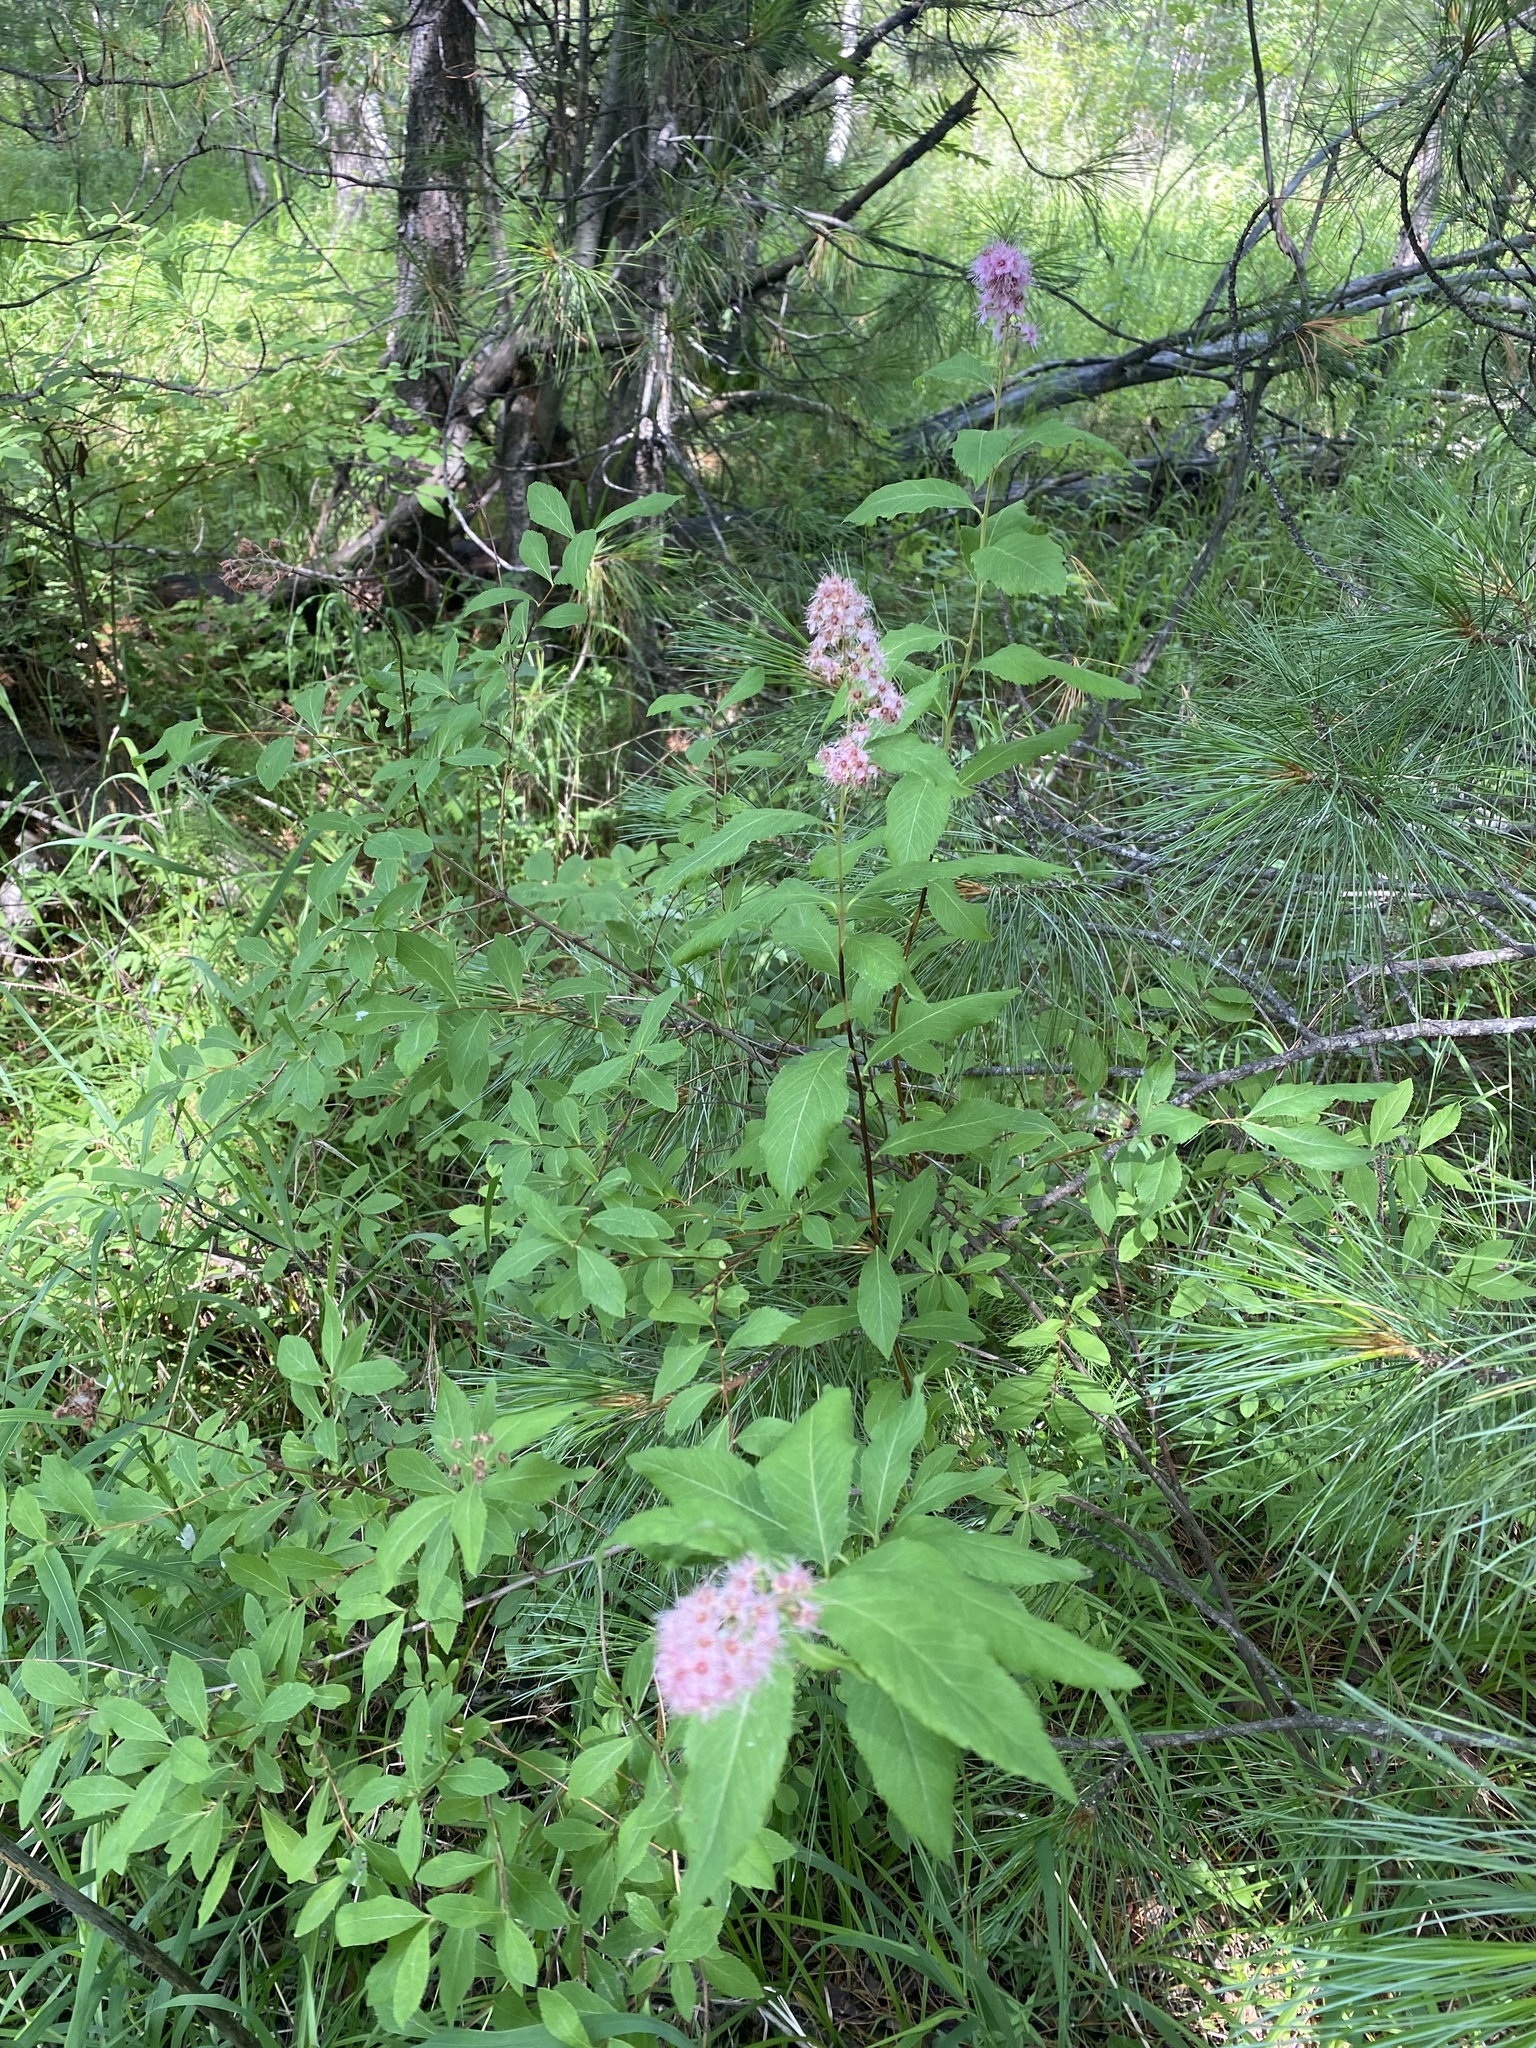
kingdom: Plantae
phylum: Tracheophyta
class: Magnoliopsida
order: Rosales
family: Rosaceae
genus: Spiraea
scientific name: Spiraea salicifolia
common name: Bridewort
